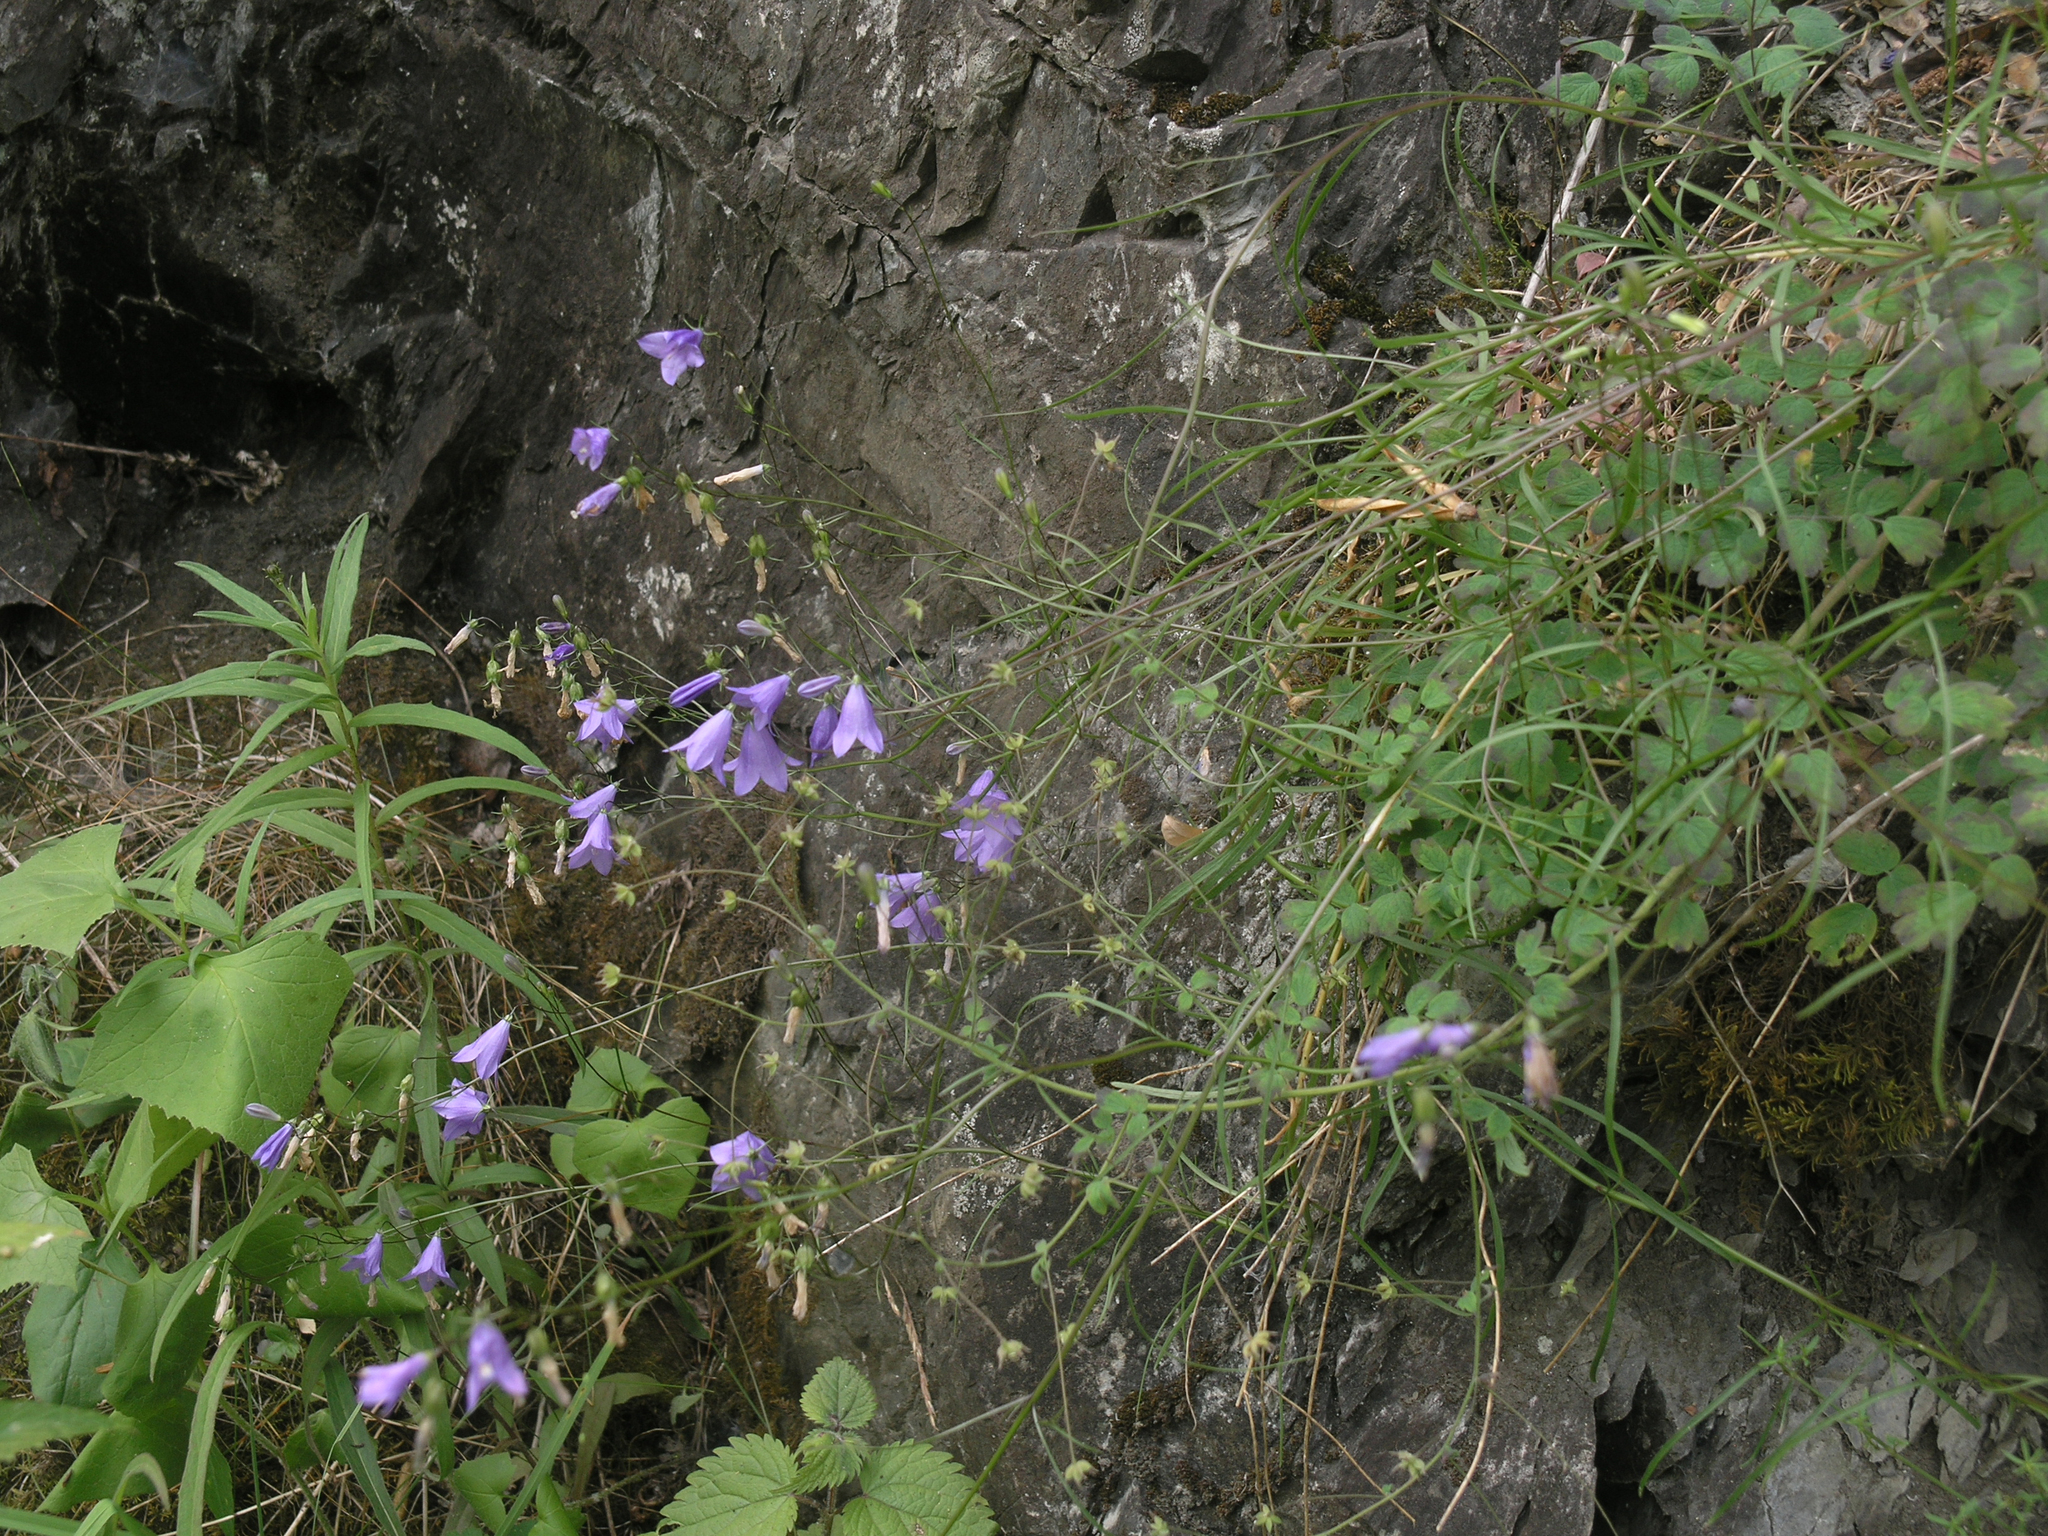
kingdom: Plantae
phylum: Tracheophyta
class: Magnoliopsida
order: Asterales
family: Campanulaceae
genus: Campanula
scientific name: Campanula rotundifolia
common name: Harebell
